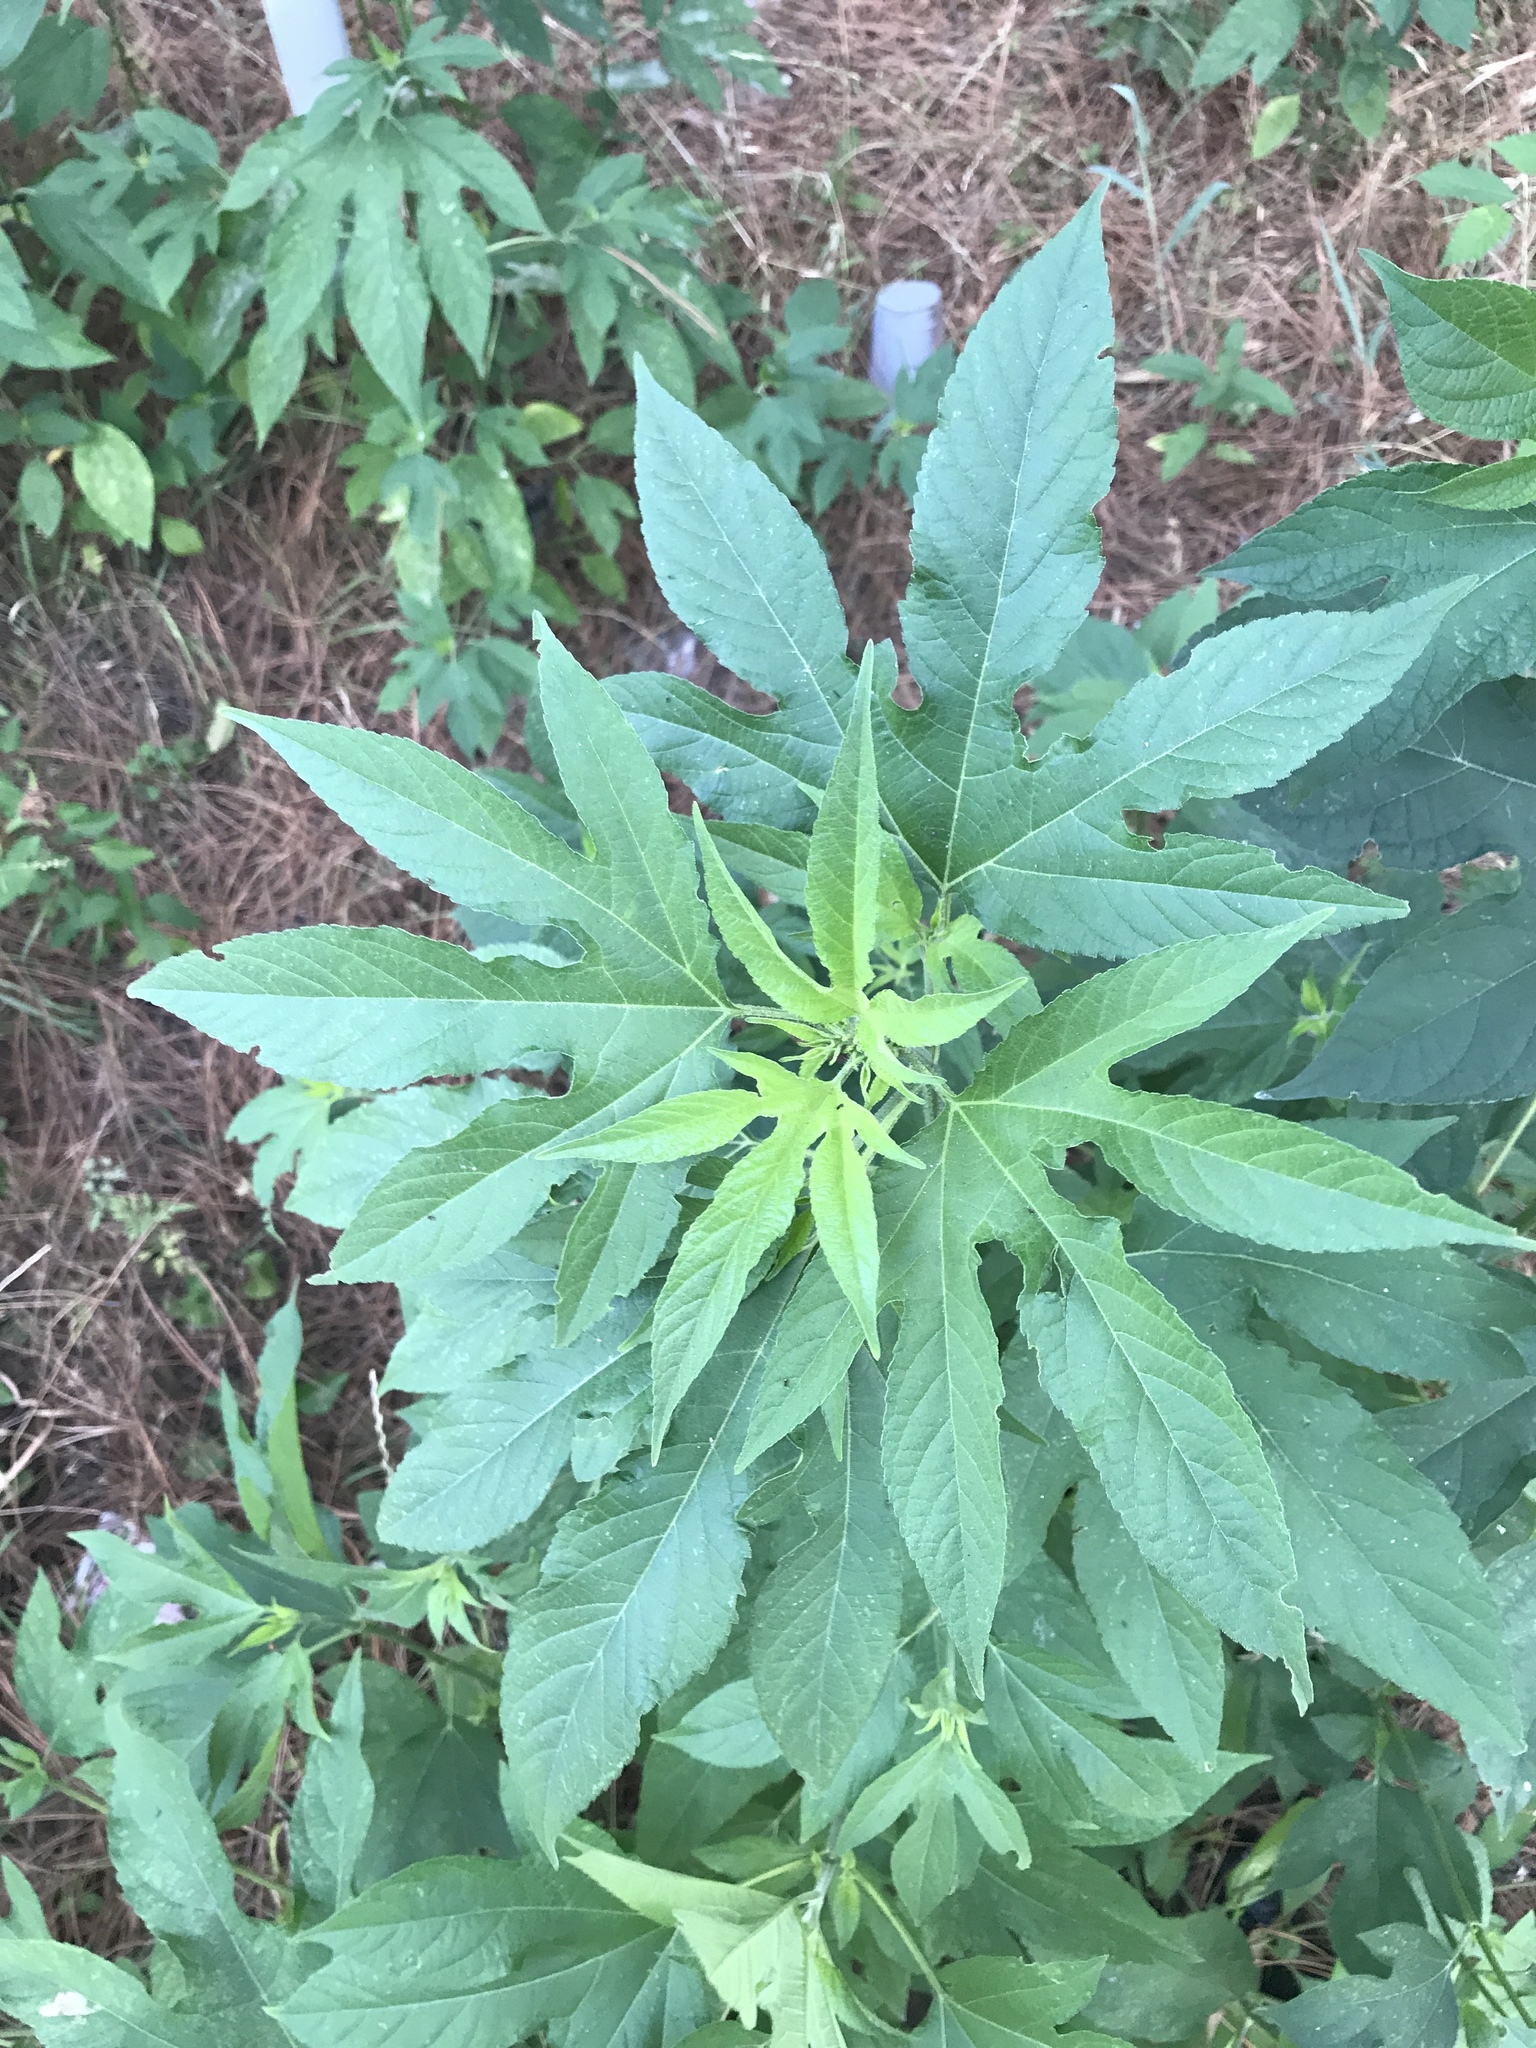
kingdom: Plantae
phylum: Tracheophyta
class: Magnoliopsida
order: Asterales
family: Asteraceae
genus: Ambrosia
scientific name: Ambrosia trifida
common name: Giant ragweed
